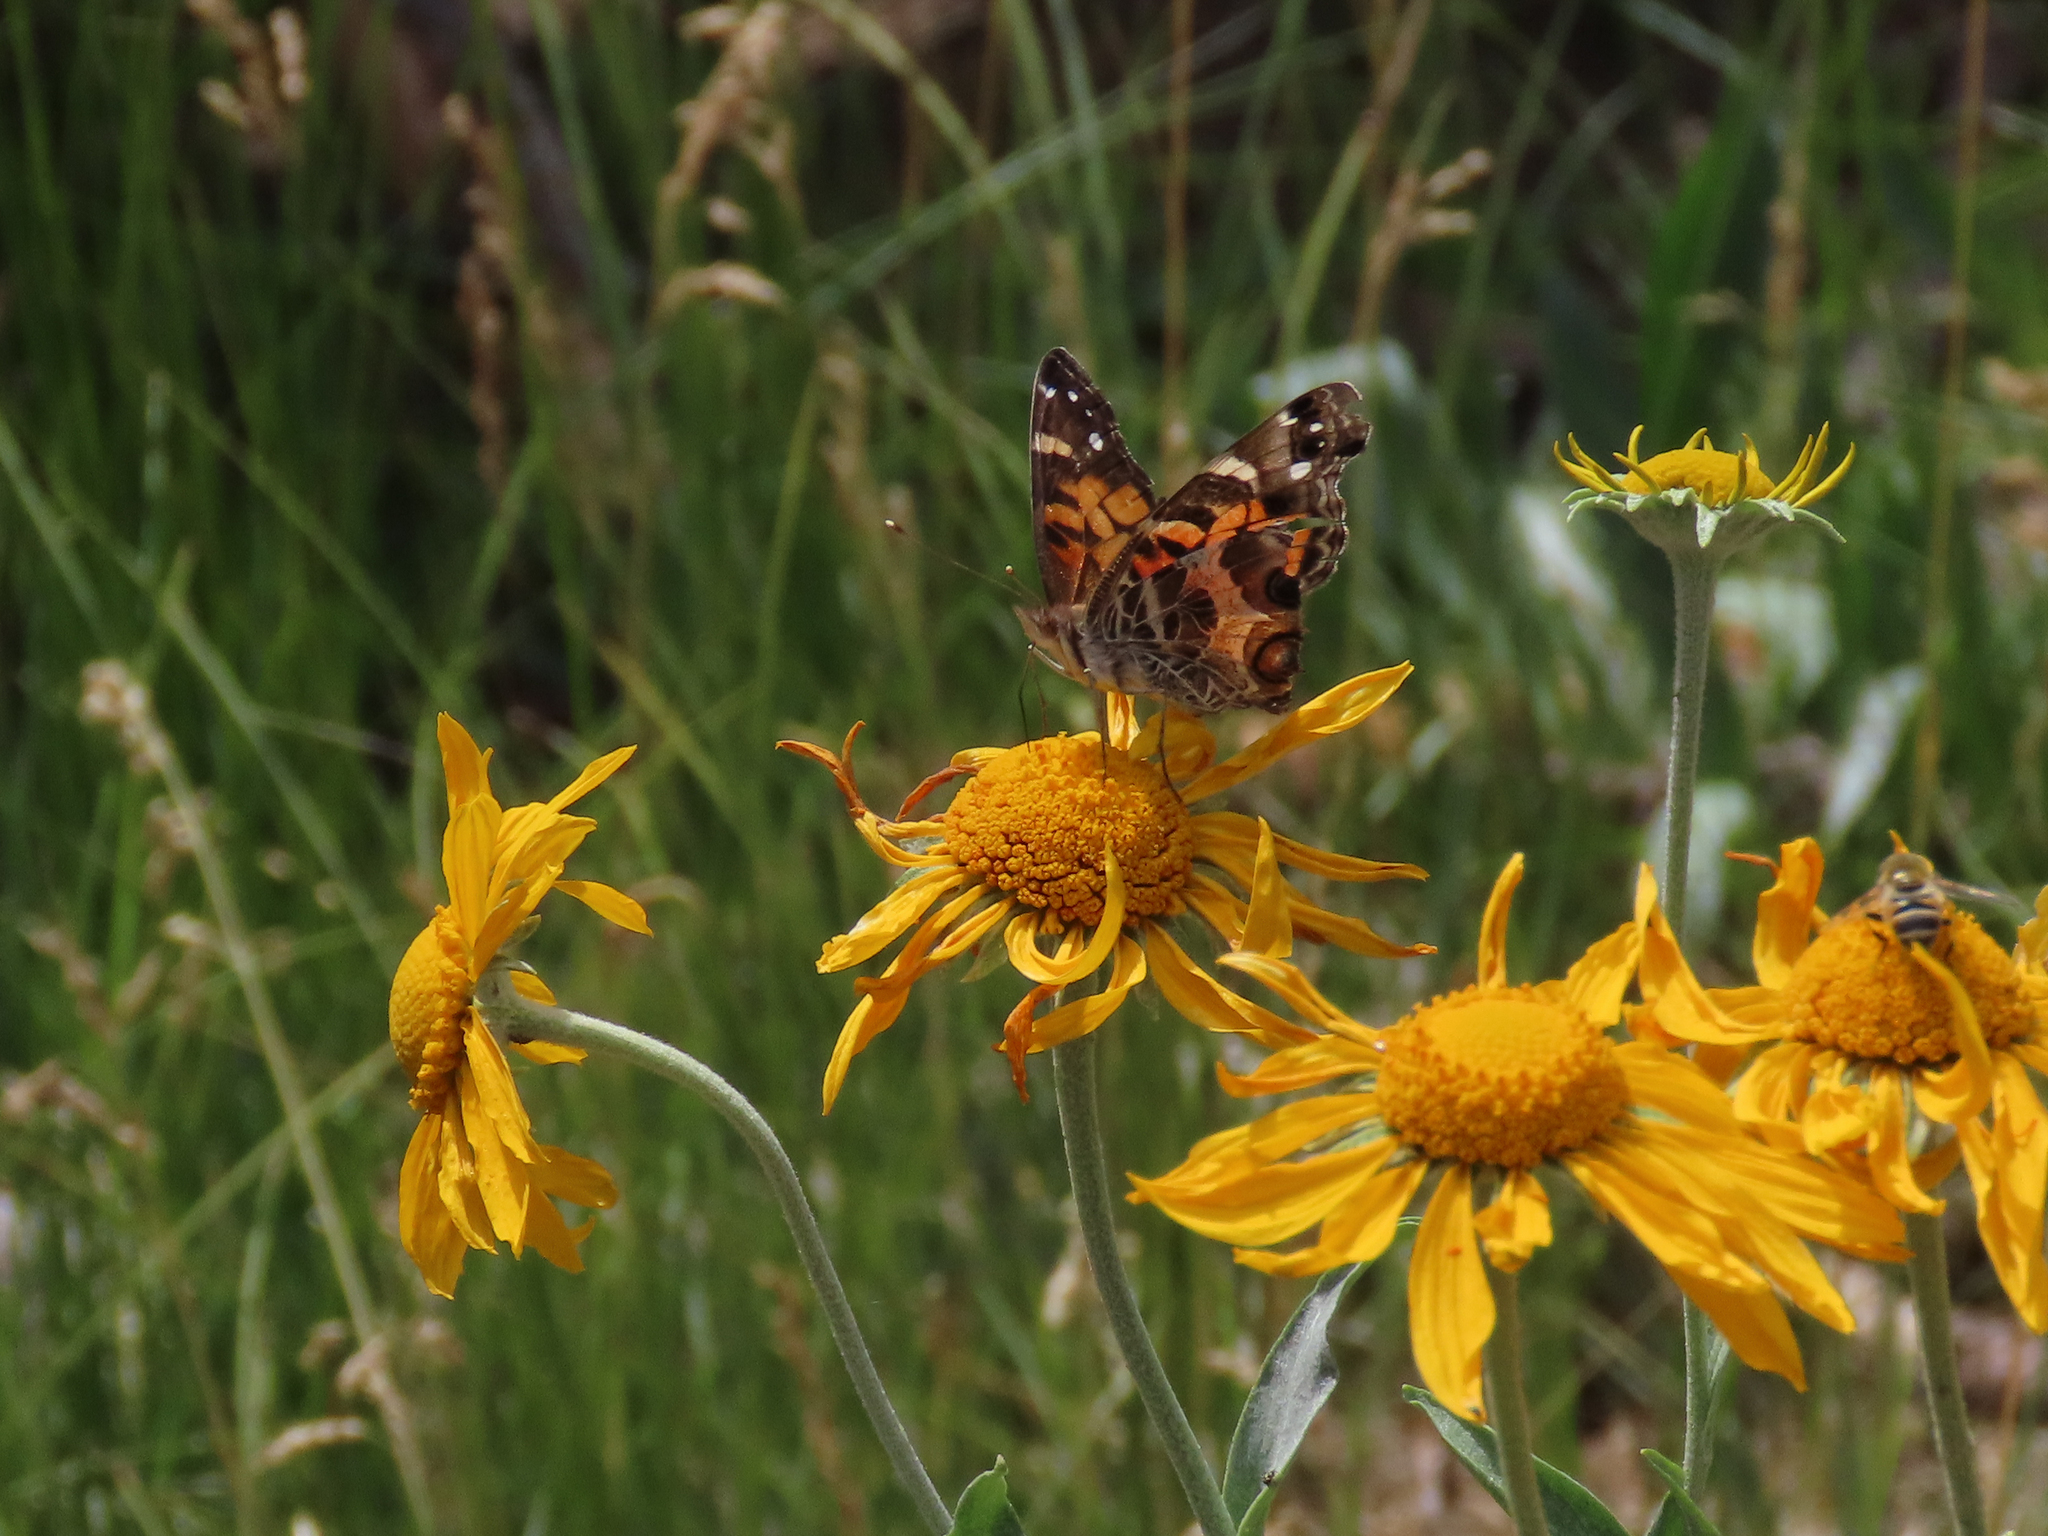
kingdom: Animalia
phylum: Arthropoda
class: Insecta
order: Lepidoptera
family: Nymphalidae
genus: Vanessa
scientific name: Vanessa virginiensis
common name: American lady
